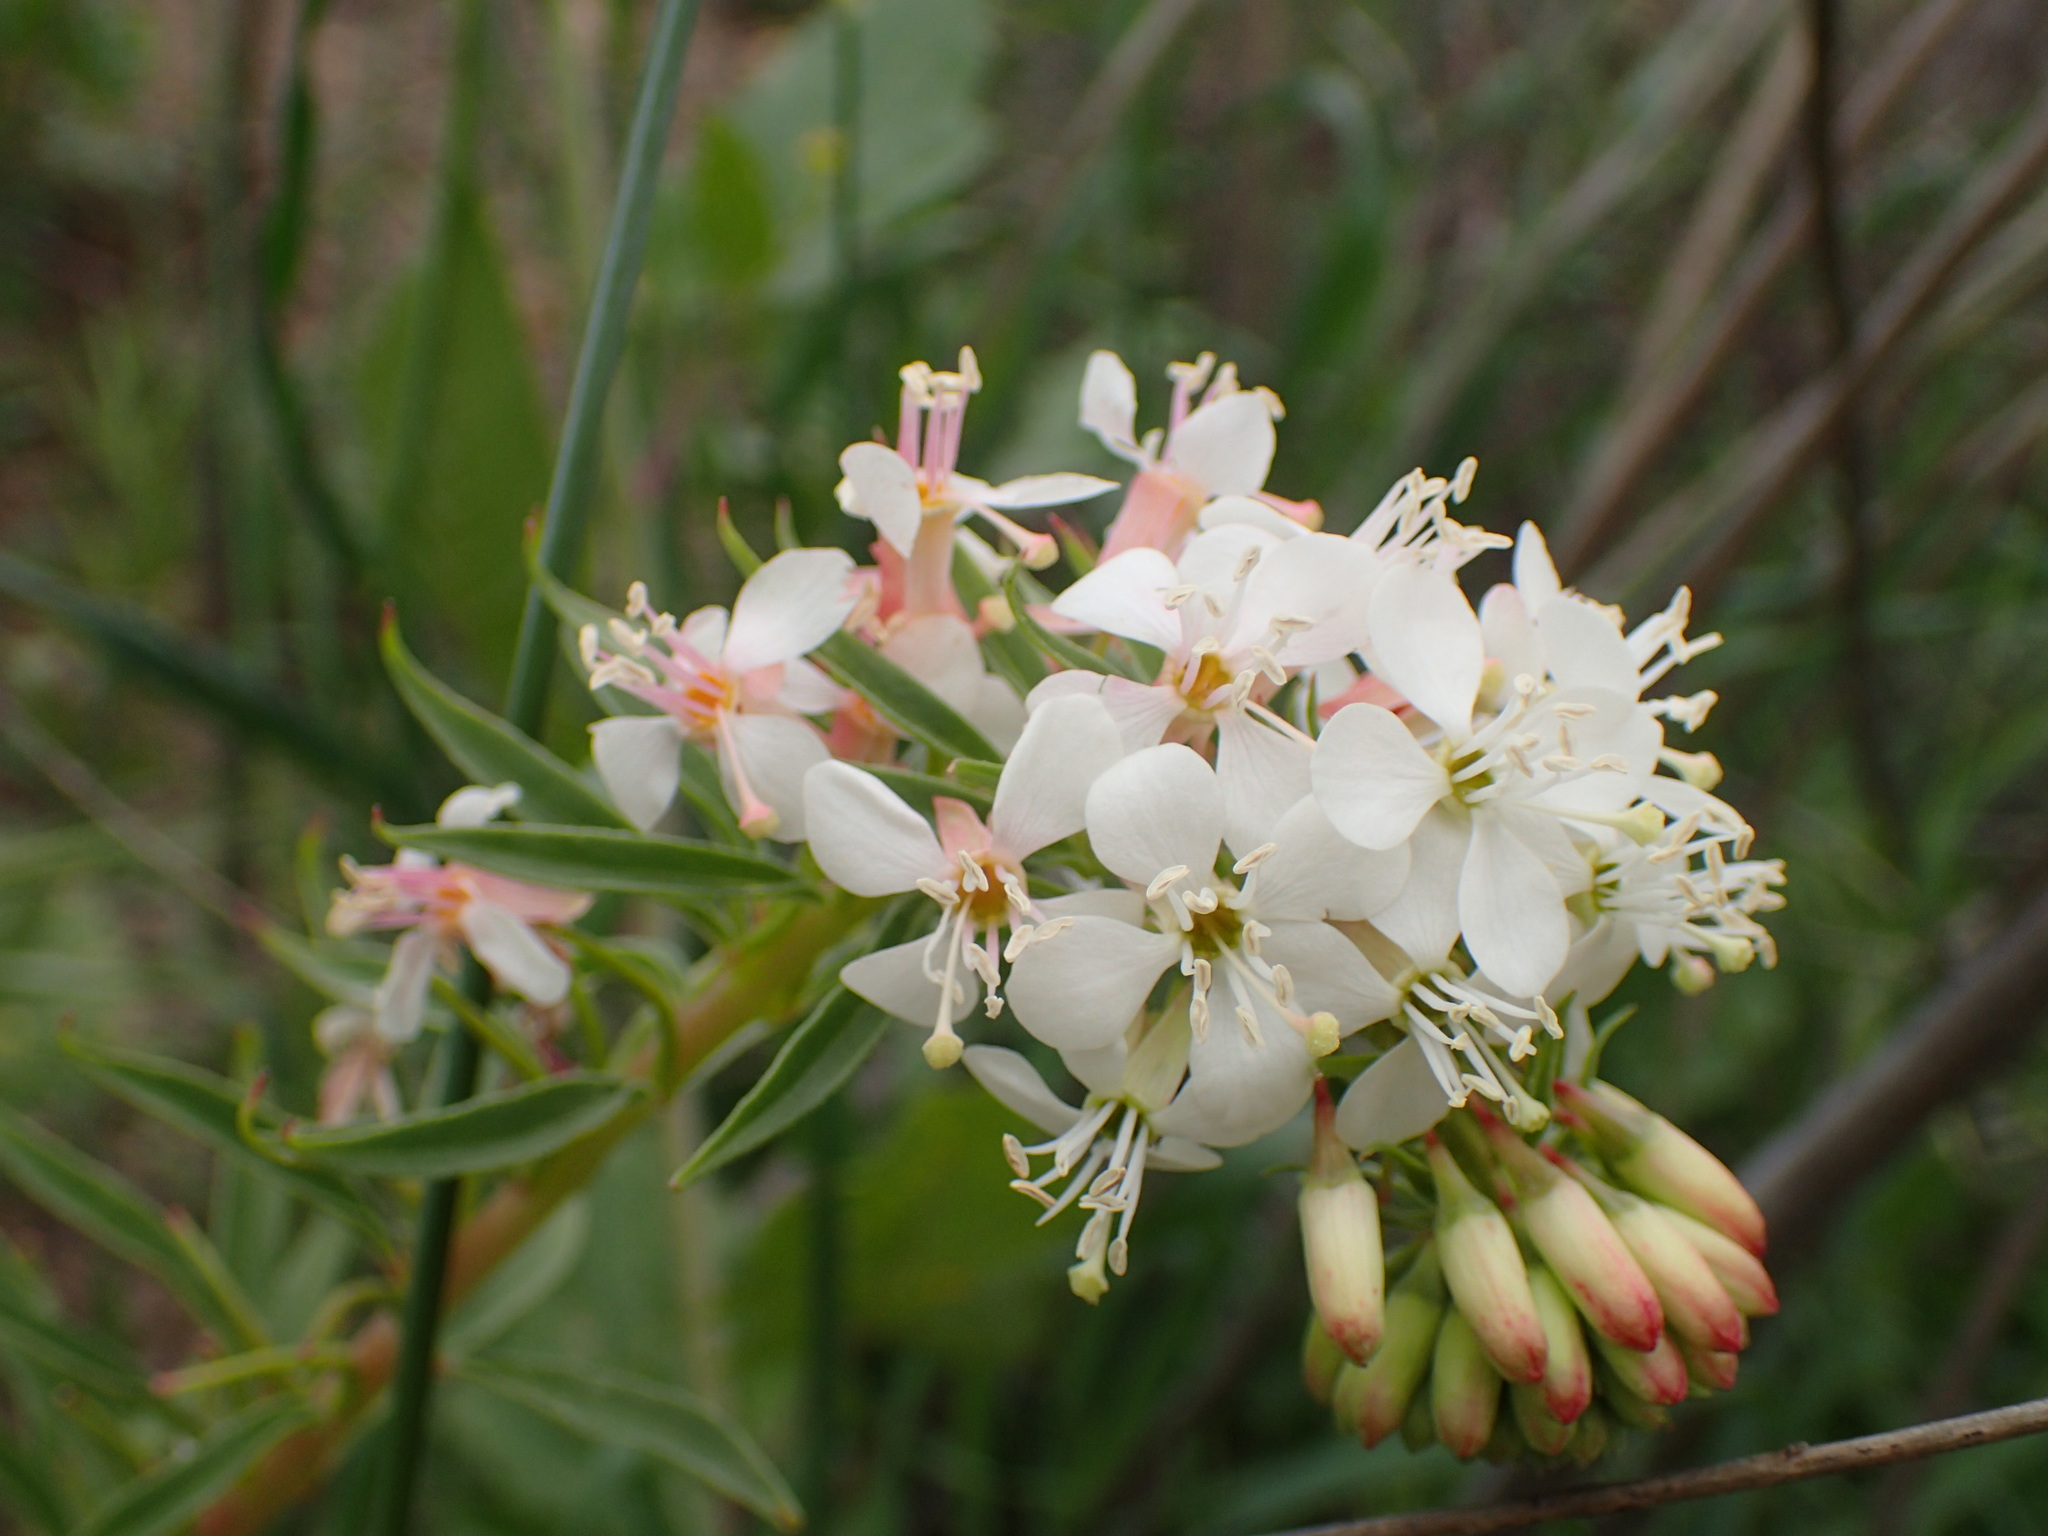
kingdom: Plantae
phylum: Tracheophyta
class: Magnoliopsida
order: Myrtales
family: Onagraceae
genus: Eremothera
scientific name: Eremothera boothii
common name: Booth's evening primrose
